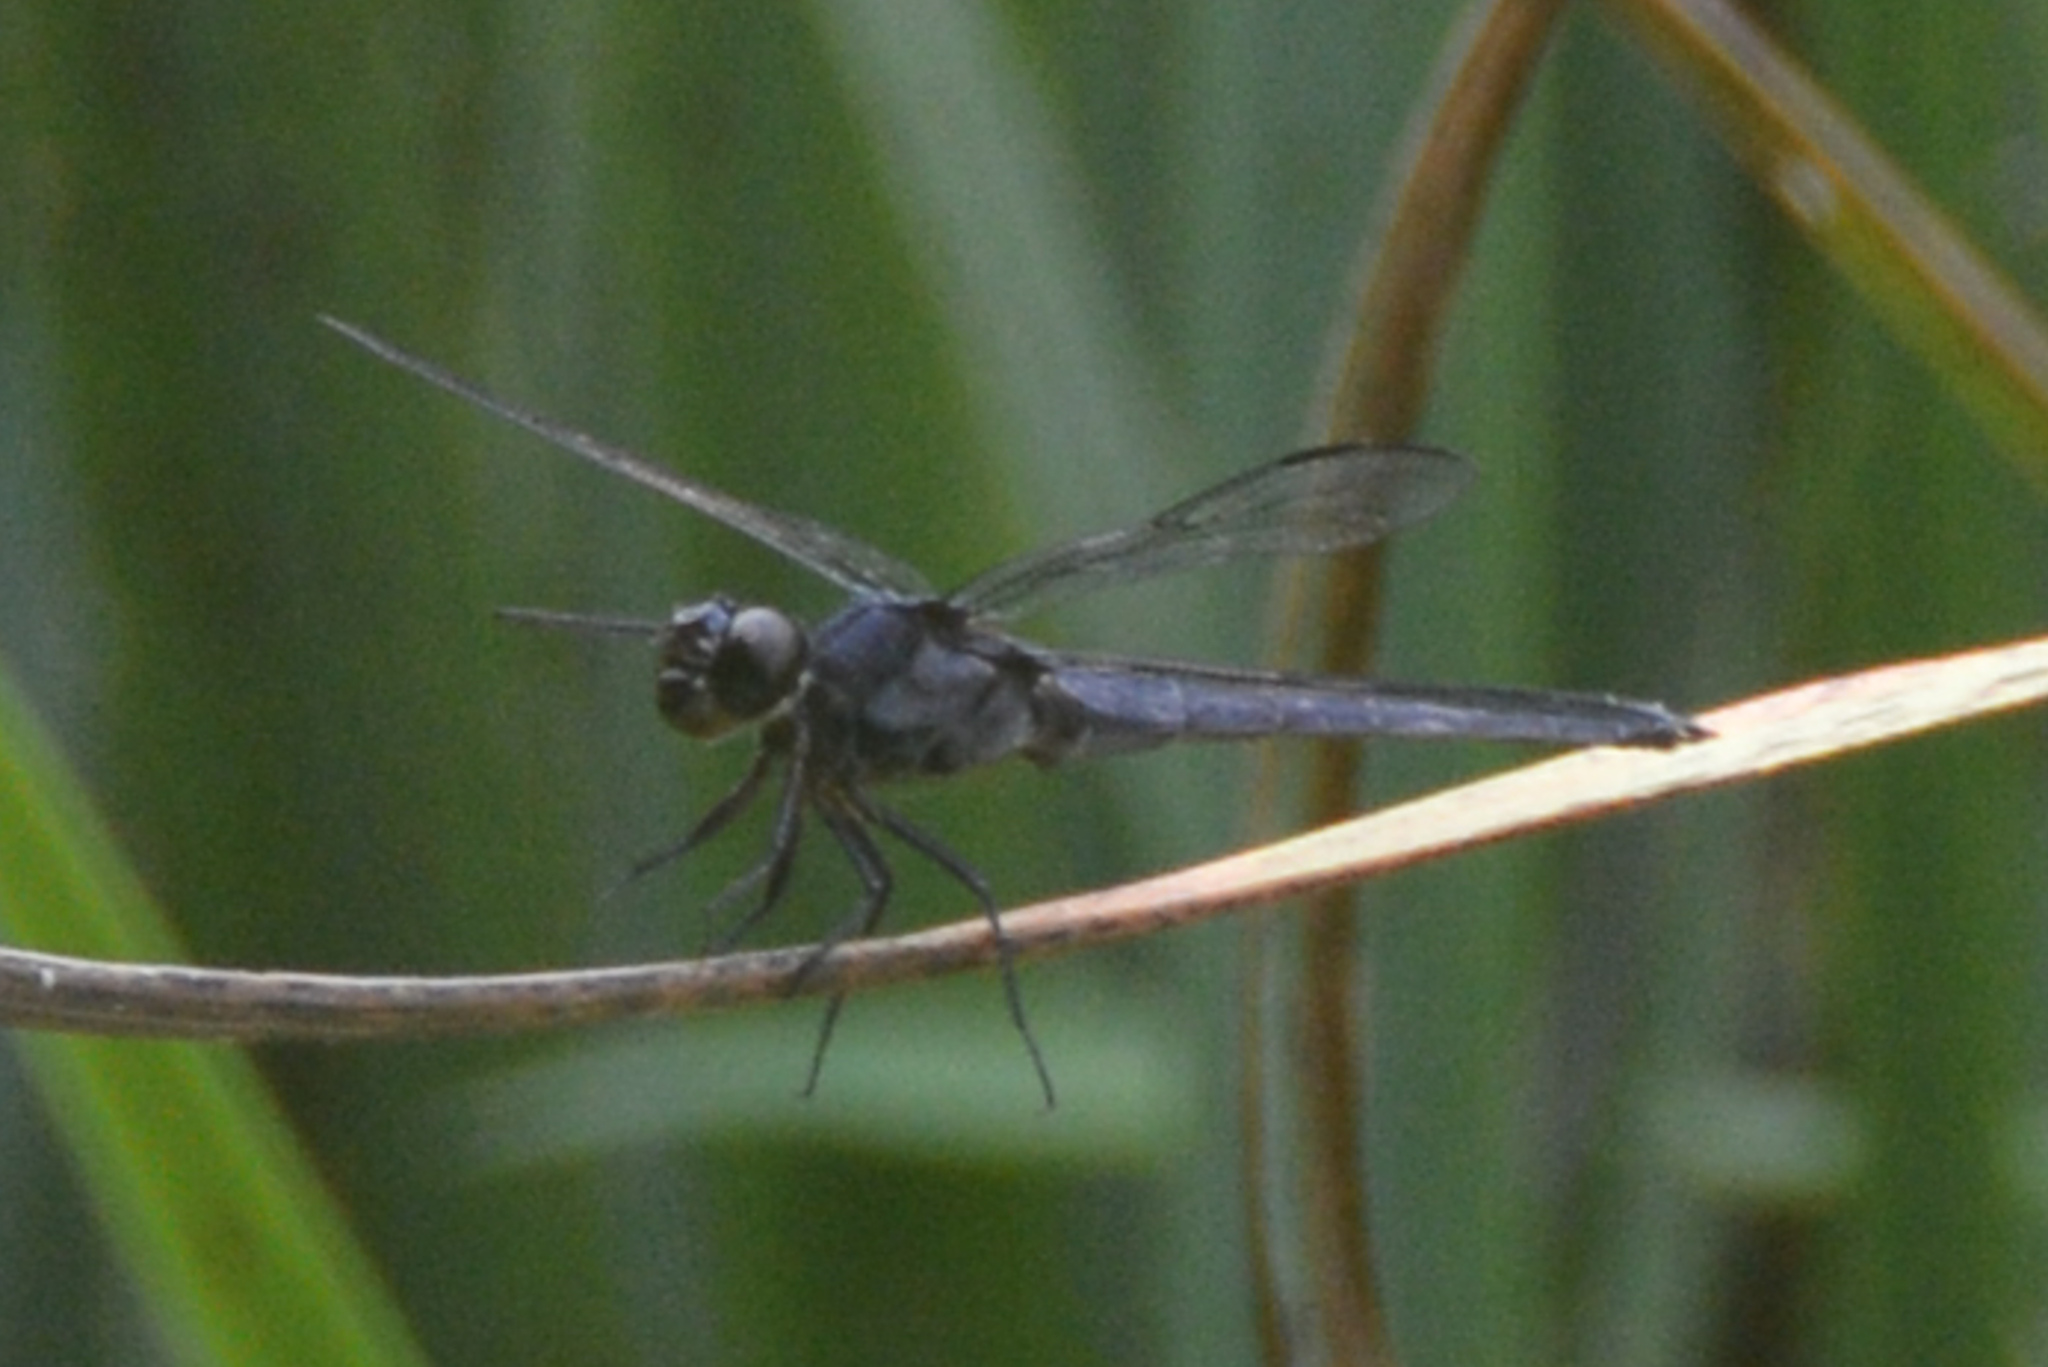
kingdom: Animalia
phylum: Arthropoda
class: Insecta
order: Odonata
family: Libellulidae
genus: Libellula
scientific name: Libellula incesta
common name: Slaty skimmer
